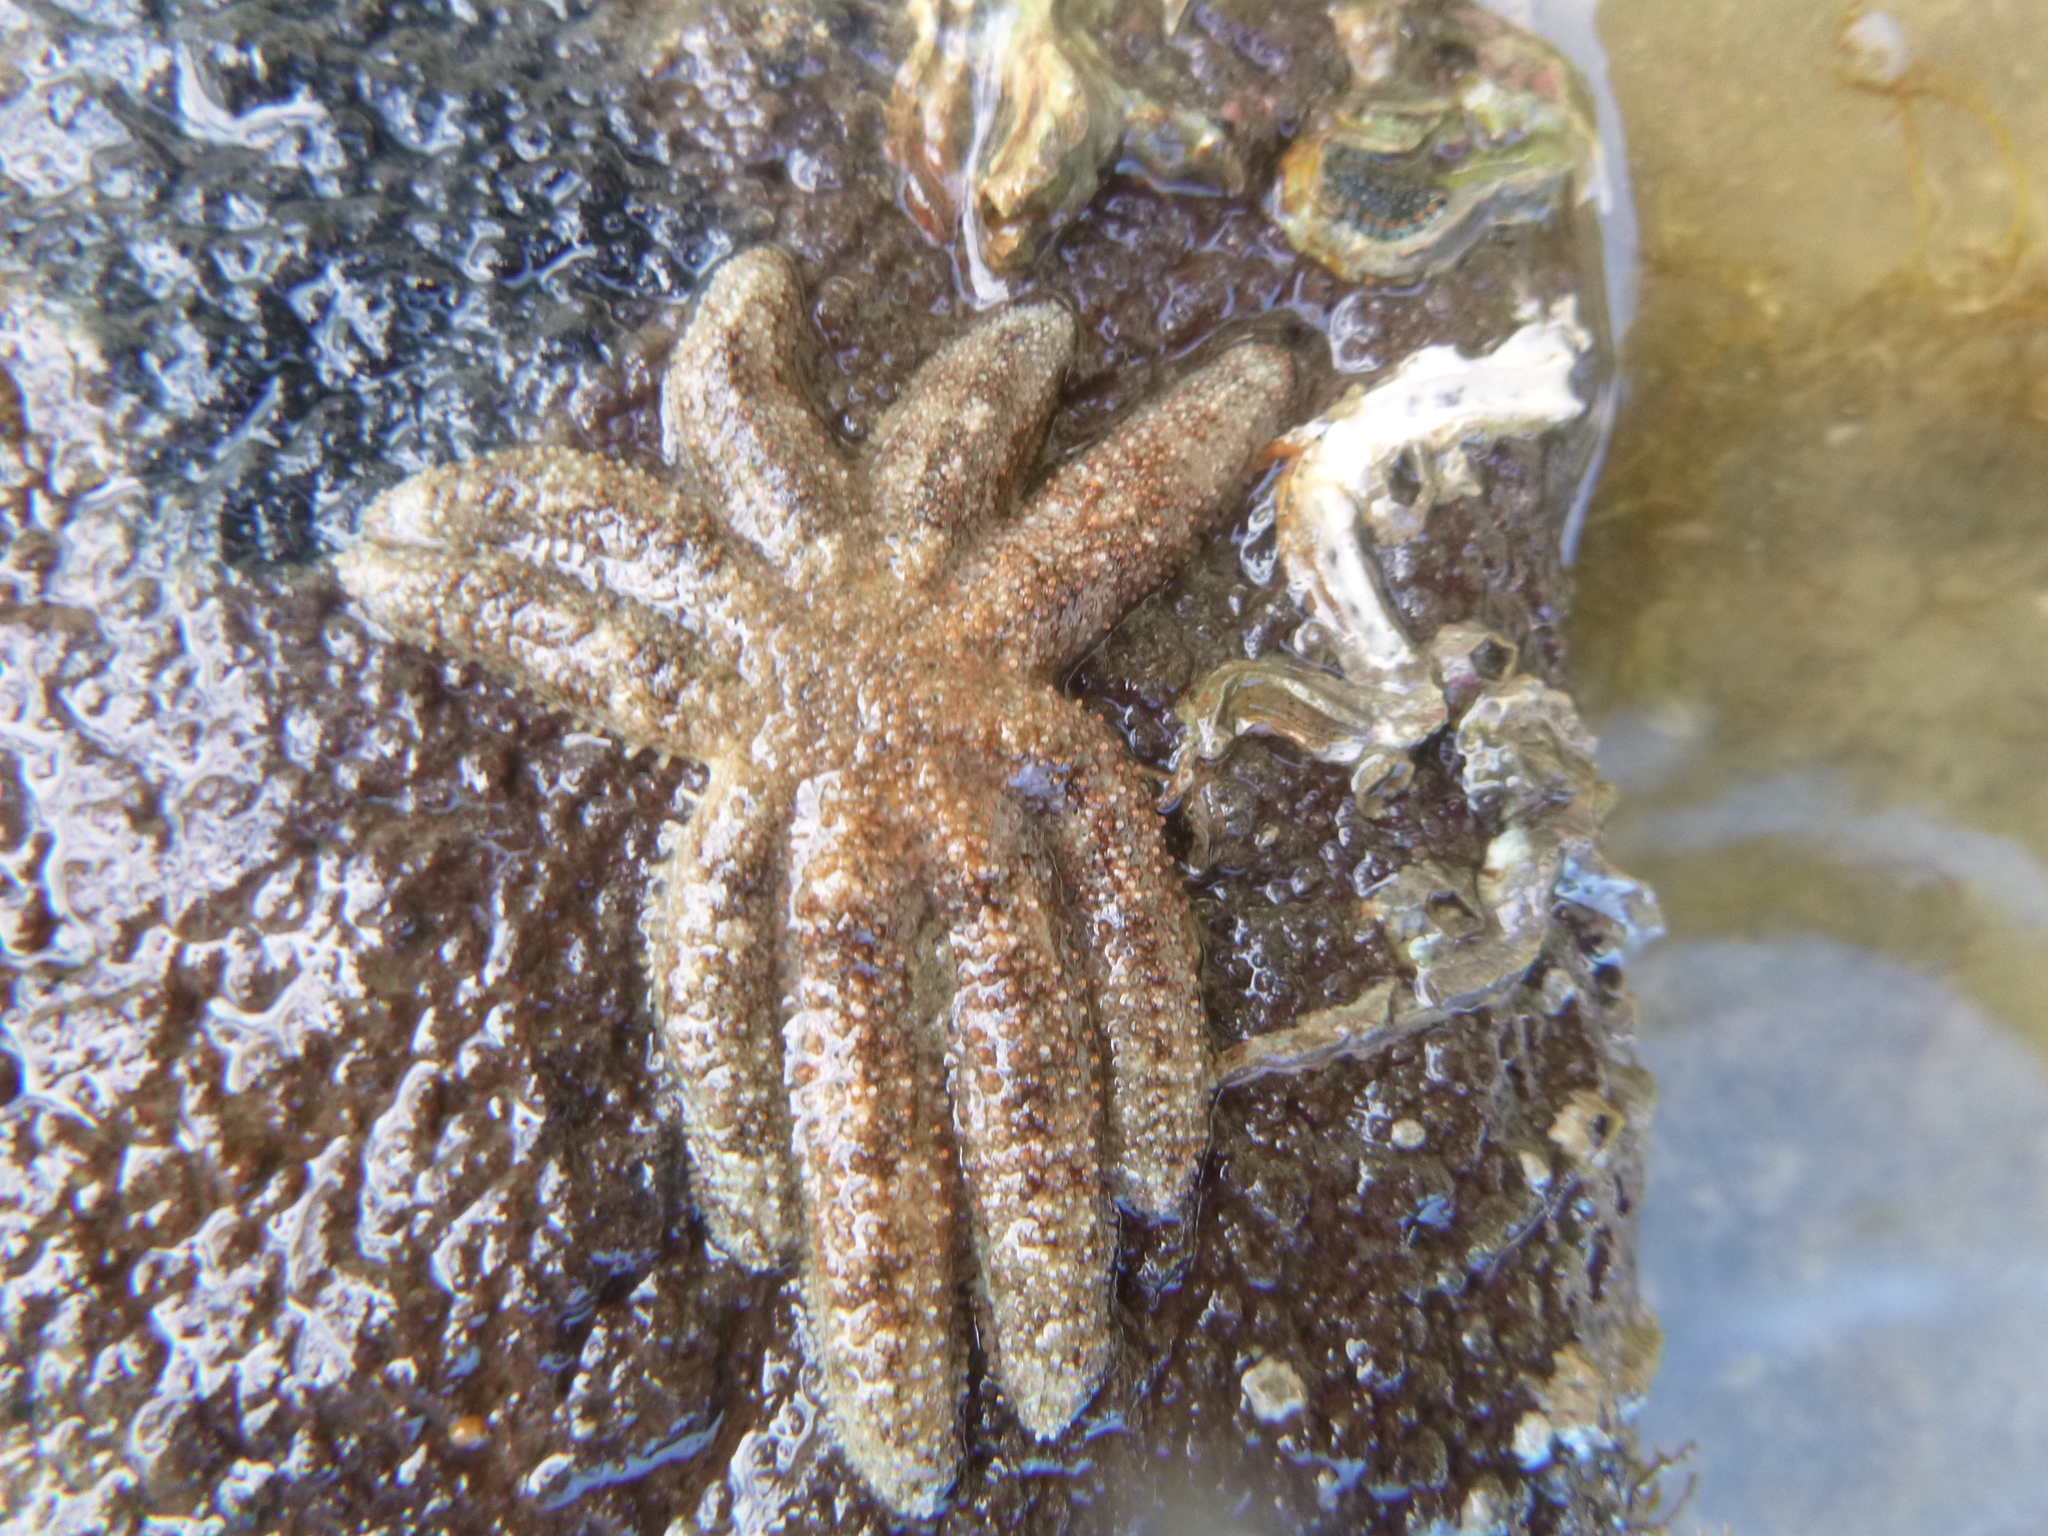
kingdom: Animalia
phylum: Echinodermata
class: Asteroidea
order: Forcipulatida
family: Stichasteridae
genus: Allostichaster
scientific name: Allostichaster polyplax
